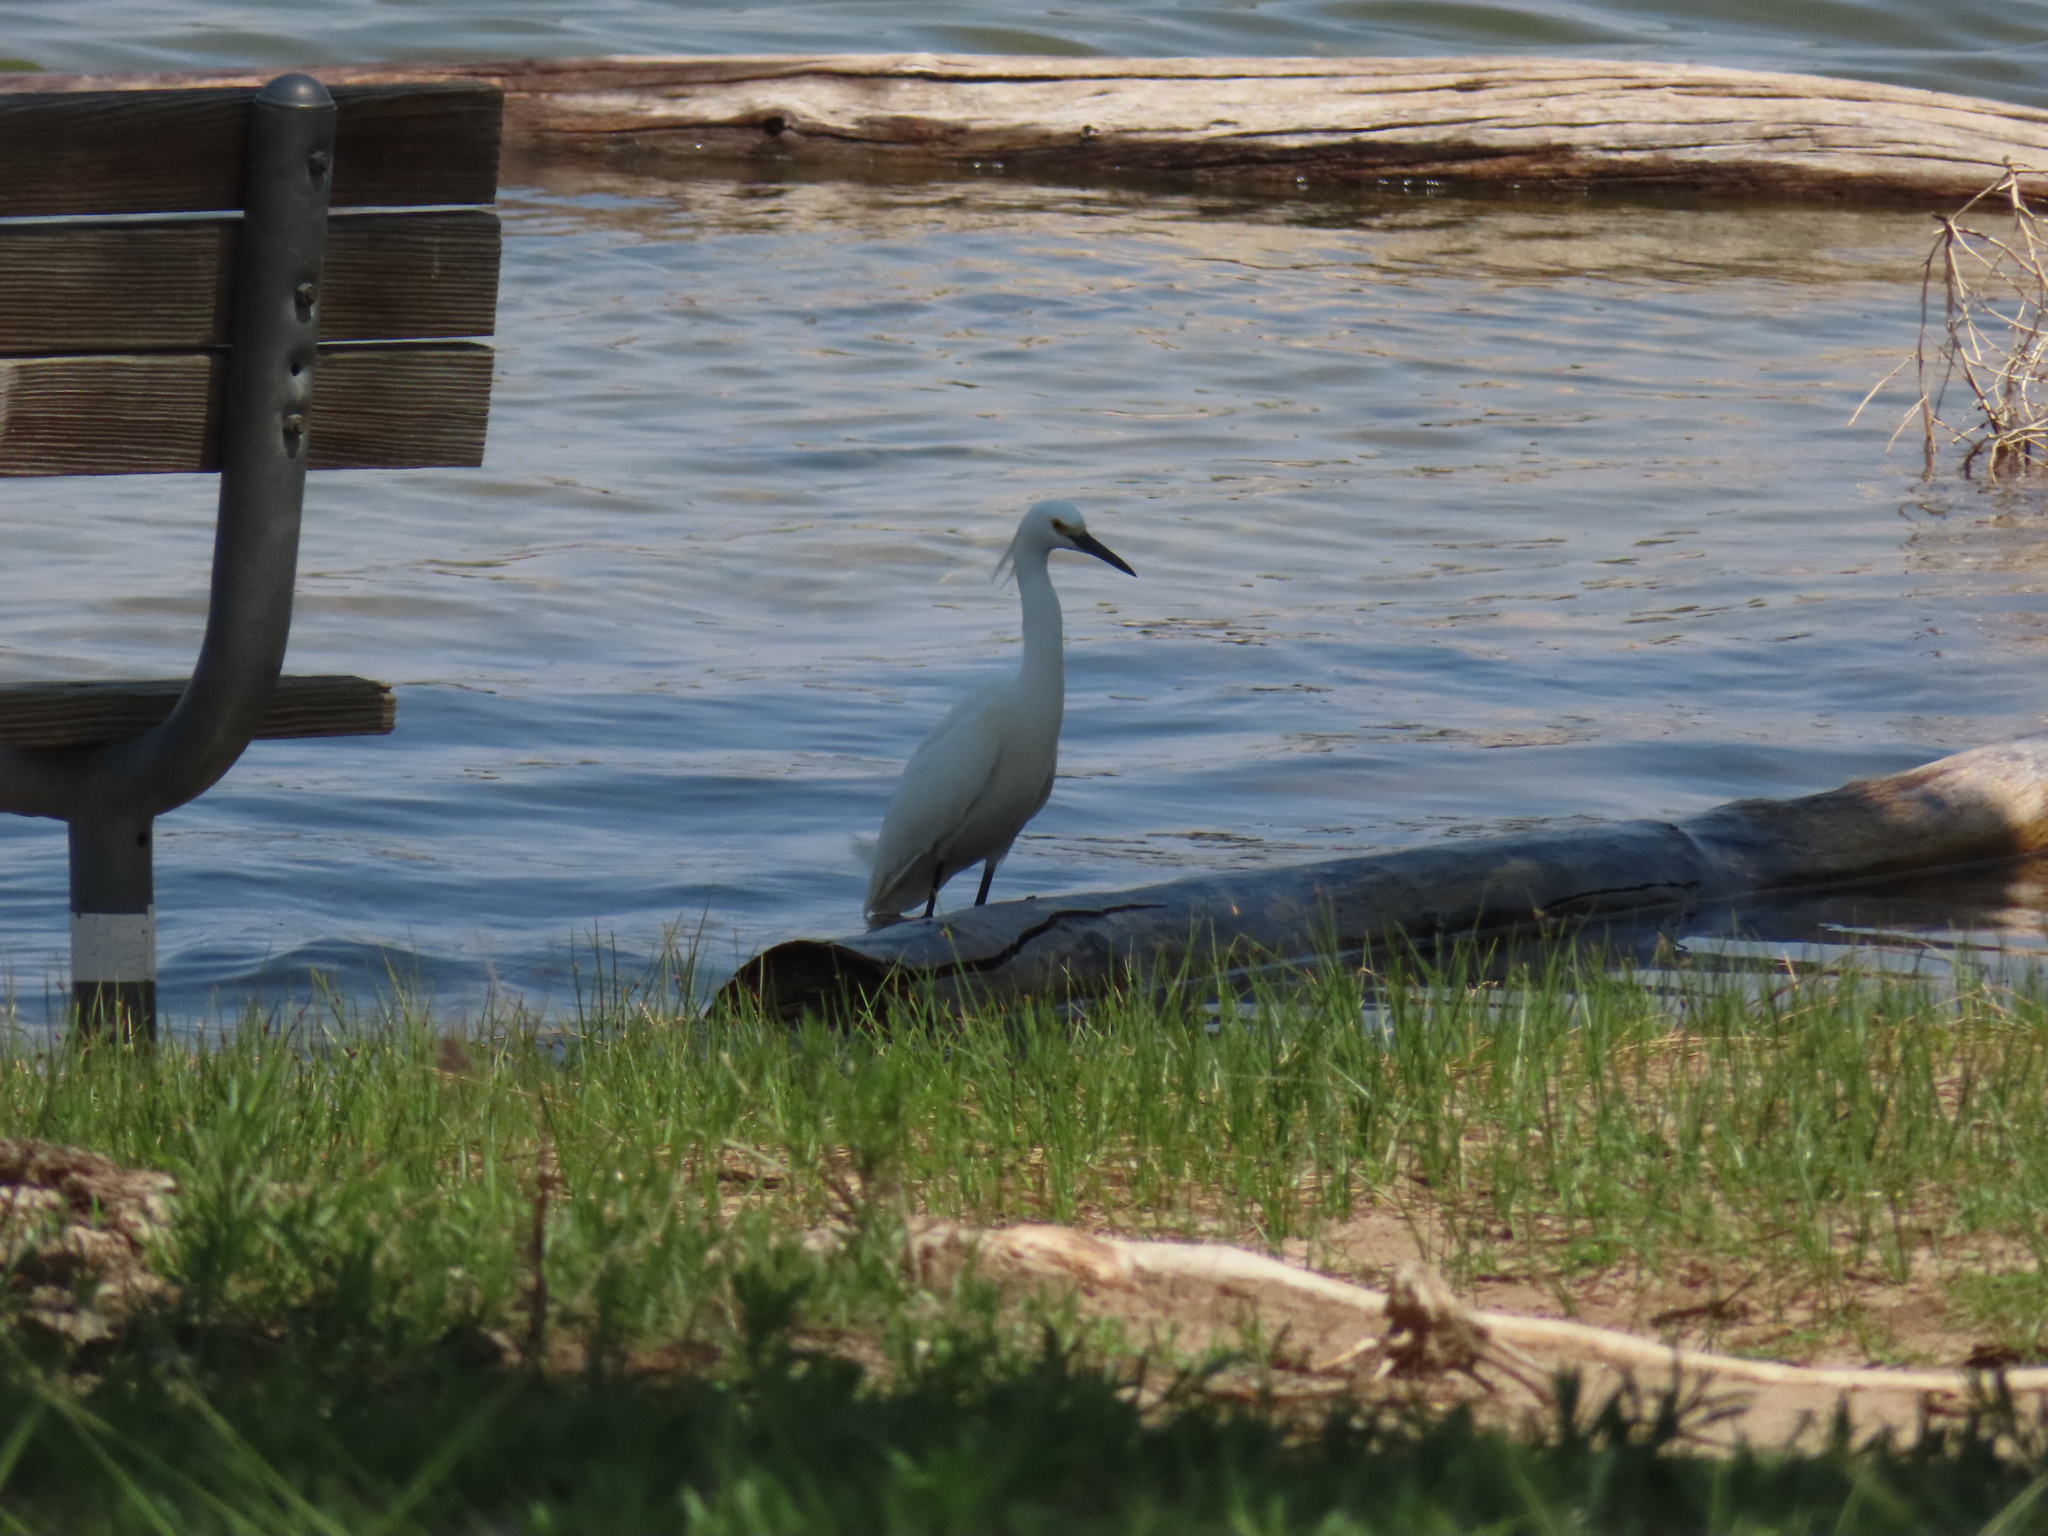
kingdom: Animalia
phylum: Chordata
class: Aves
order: Pelecaniformes
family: Ardeidae
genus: Egretta
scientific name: Egretta thula
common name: Snowy egret
